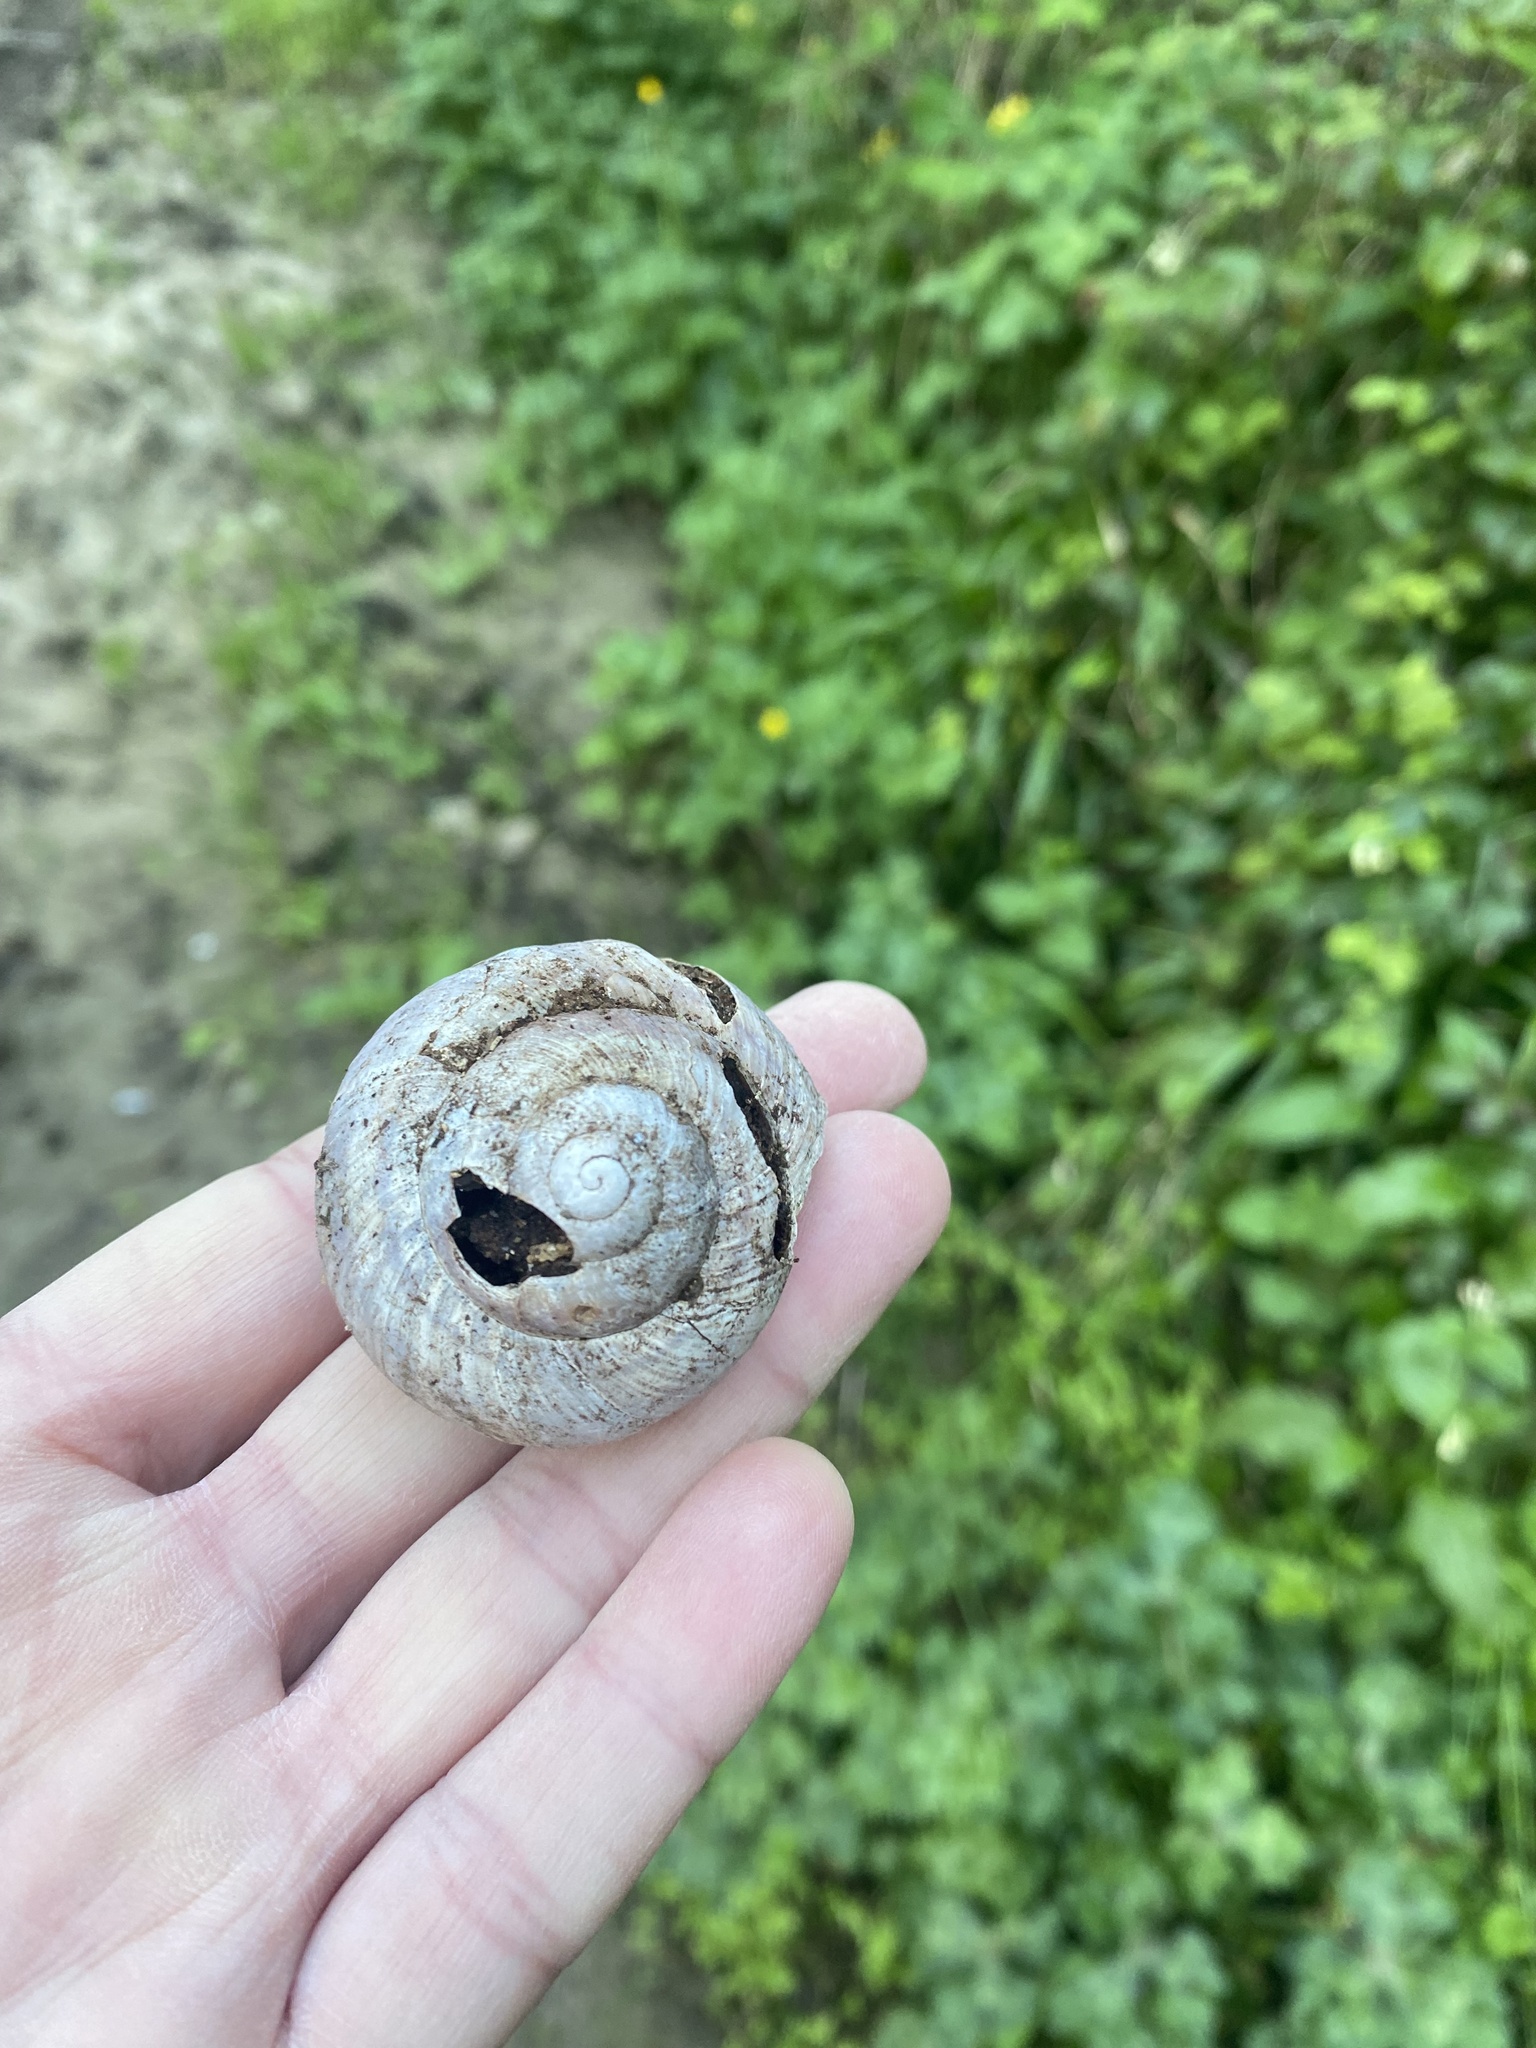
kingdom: Animalia
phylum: Mollusca
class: Gastropoda
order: Stylommatophora
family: Helicidae
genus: Helix
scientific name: Helix straminea
